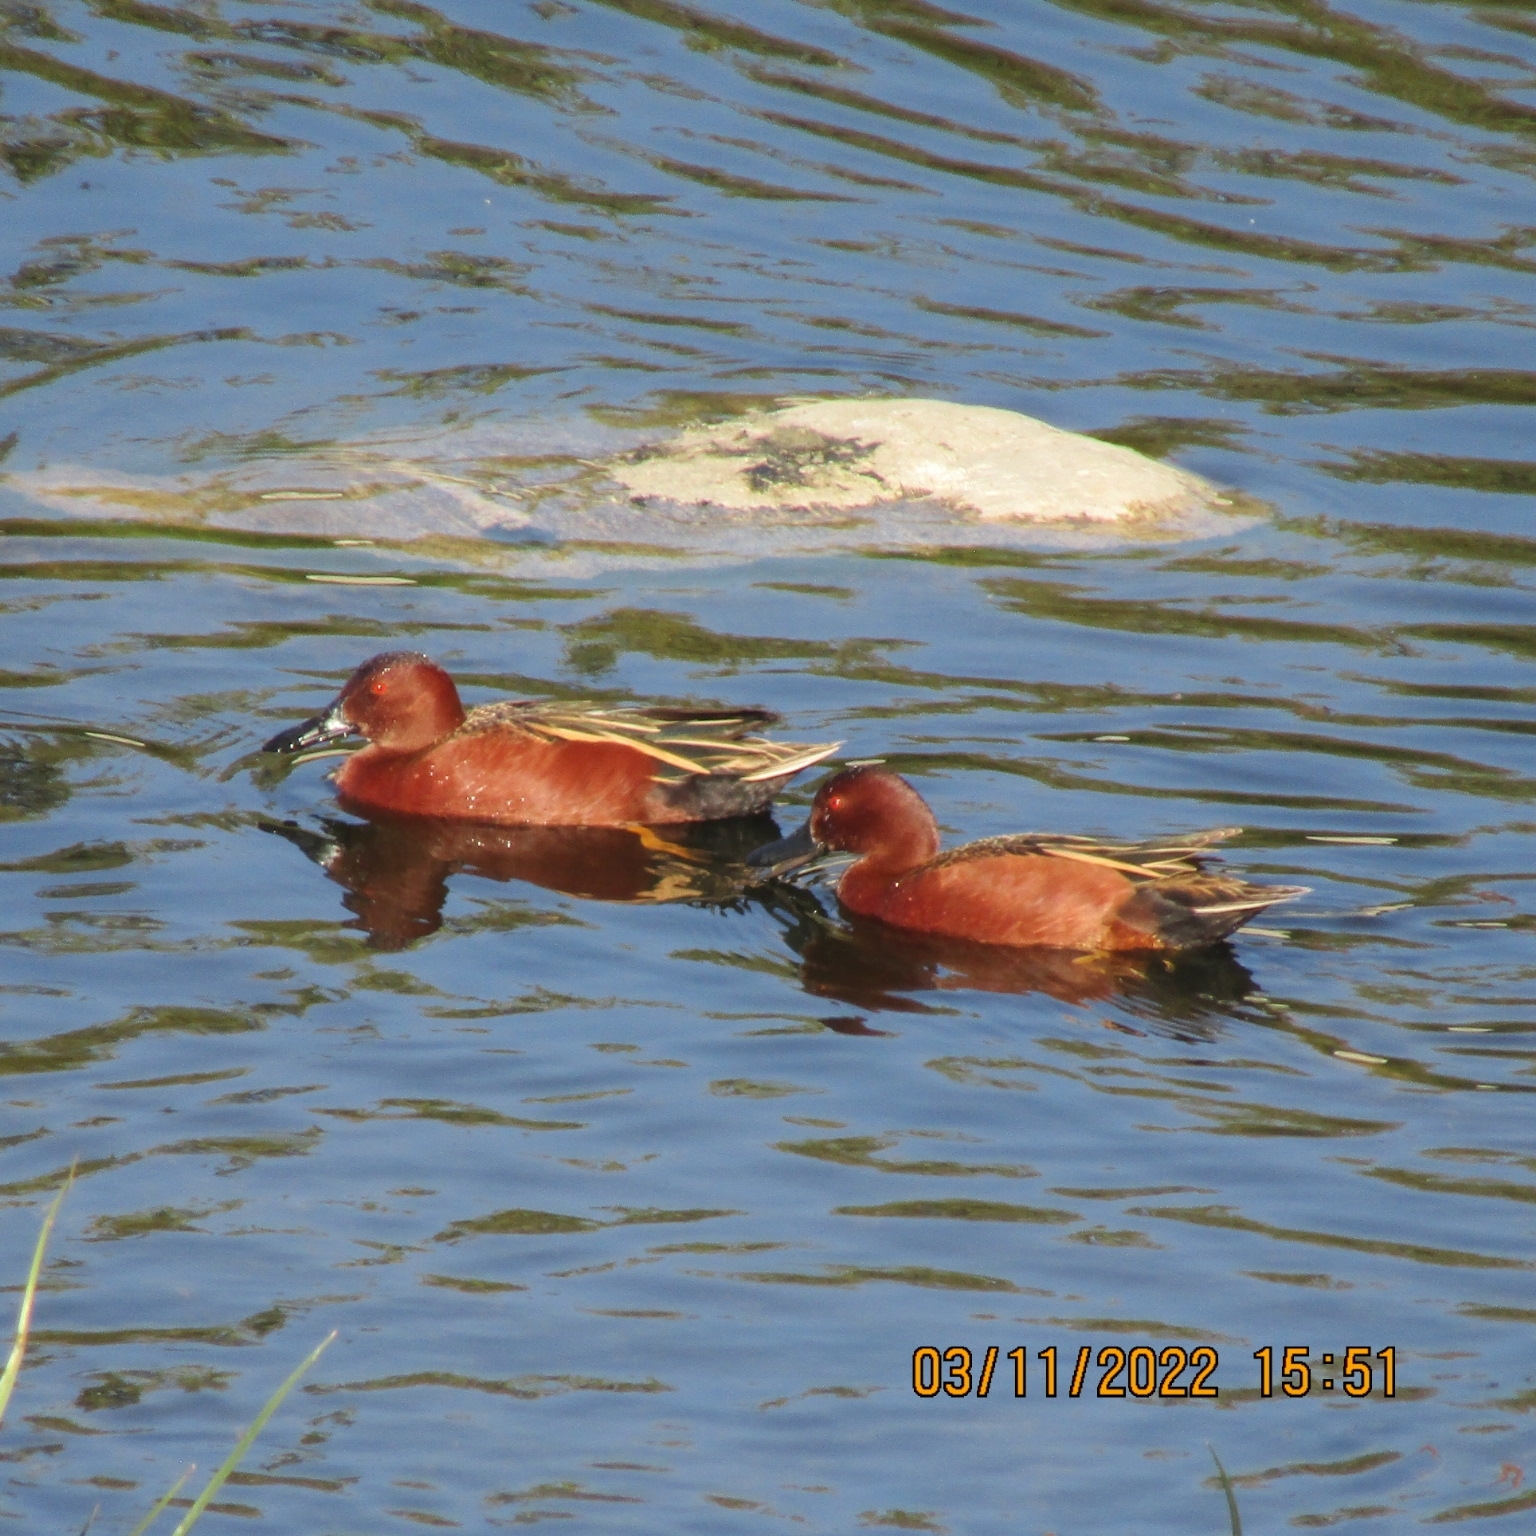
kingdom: Animalia
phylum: Chordata
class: Aves
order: Anseriformes
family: Anatidae
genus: Spatula
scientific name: Spatula cyanoptera
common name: Cinnamon teal
